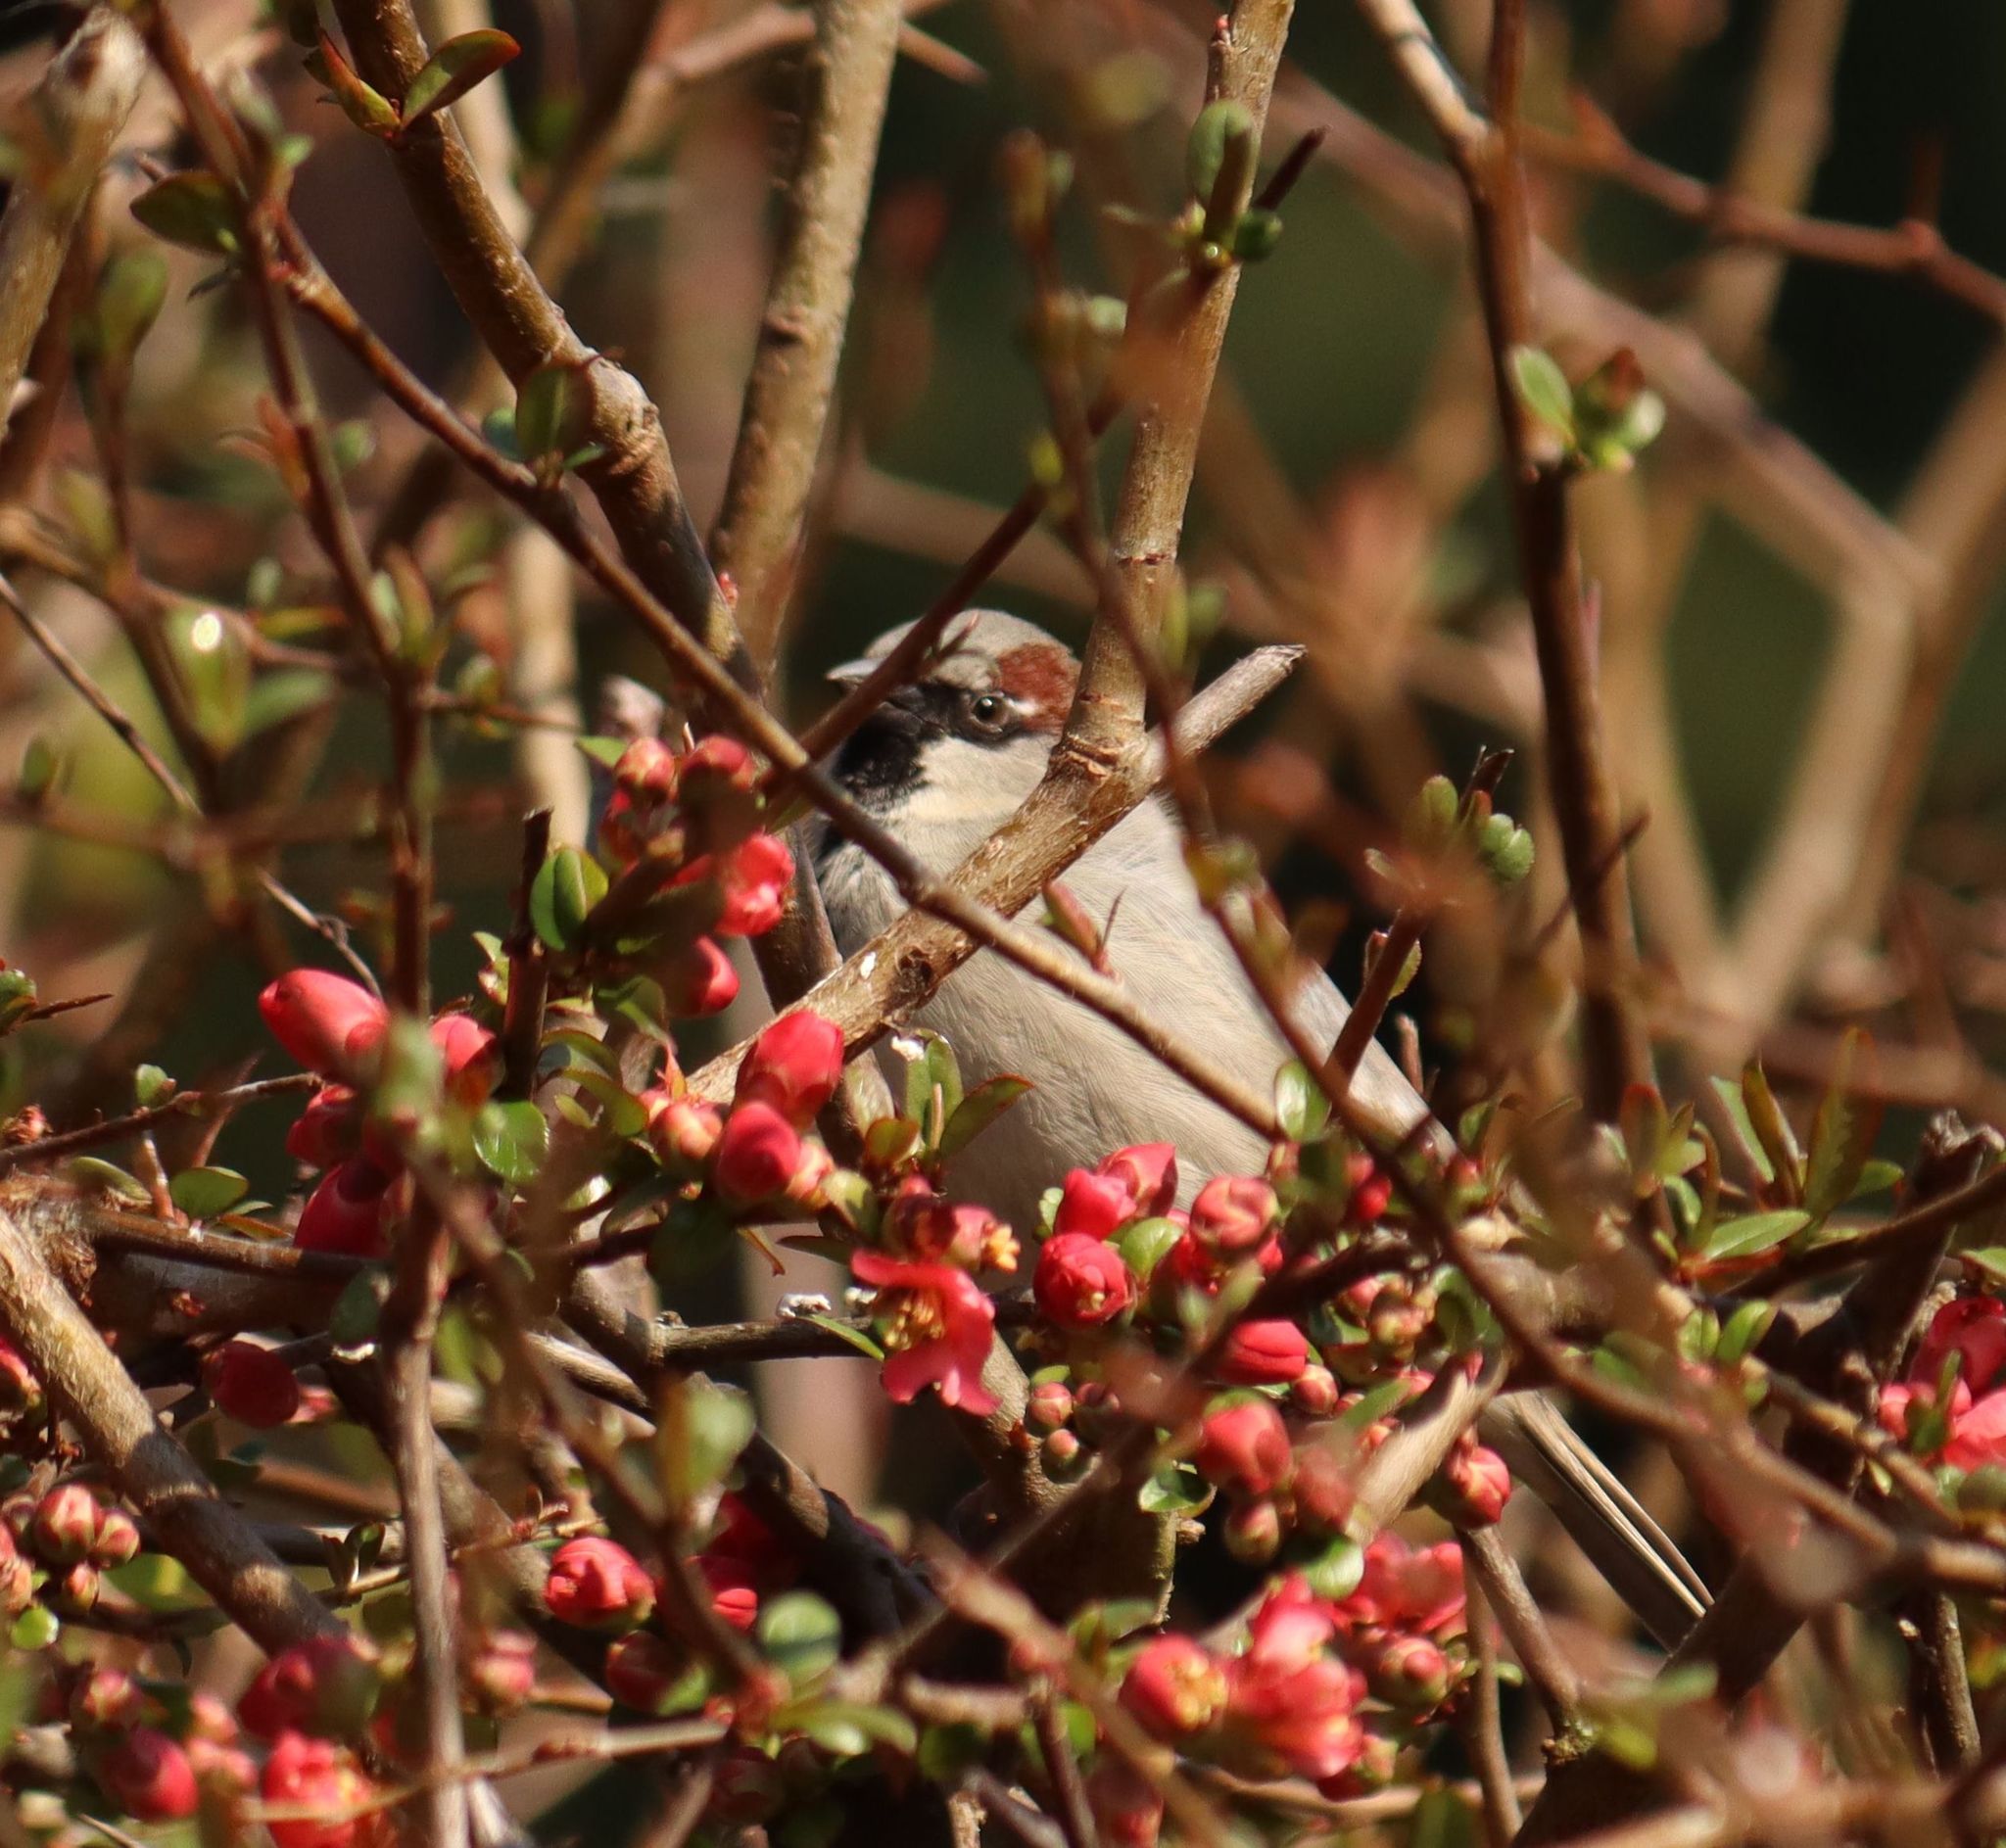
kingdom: Animalia
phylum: Chordata
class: Aves
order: Passeriformes
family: Passeridae
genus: Passer
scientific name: Passer domesticus
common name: House sparrow
